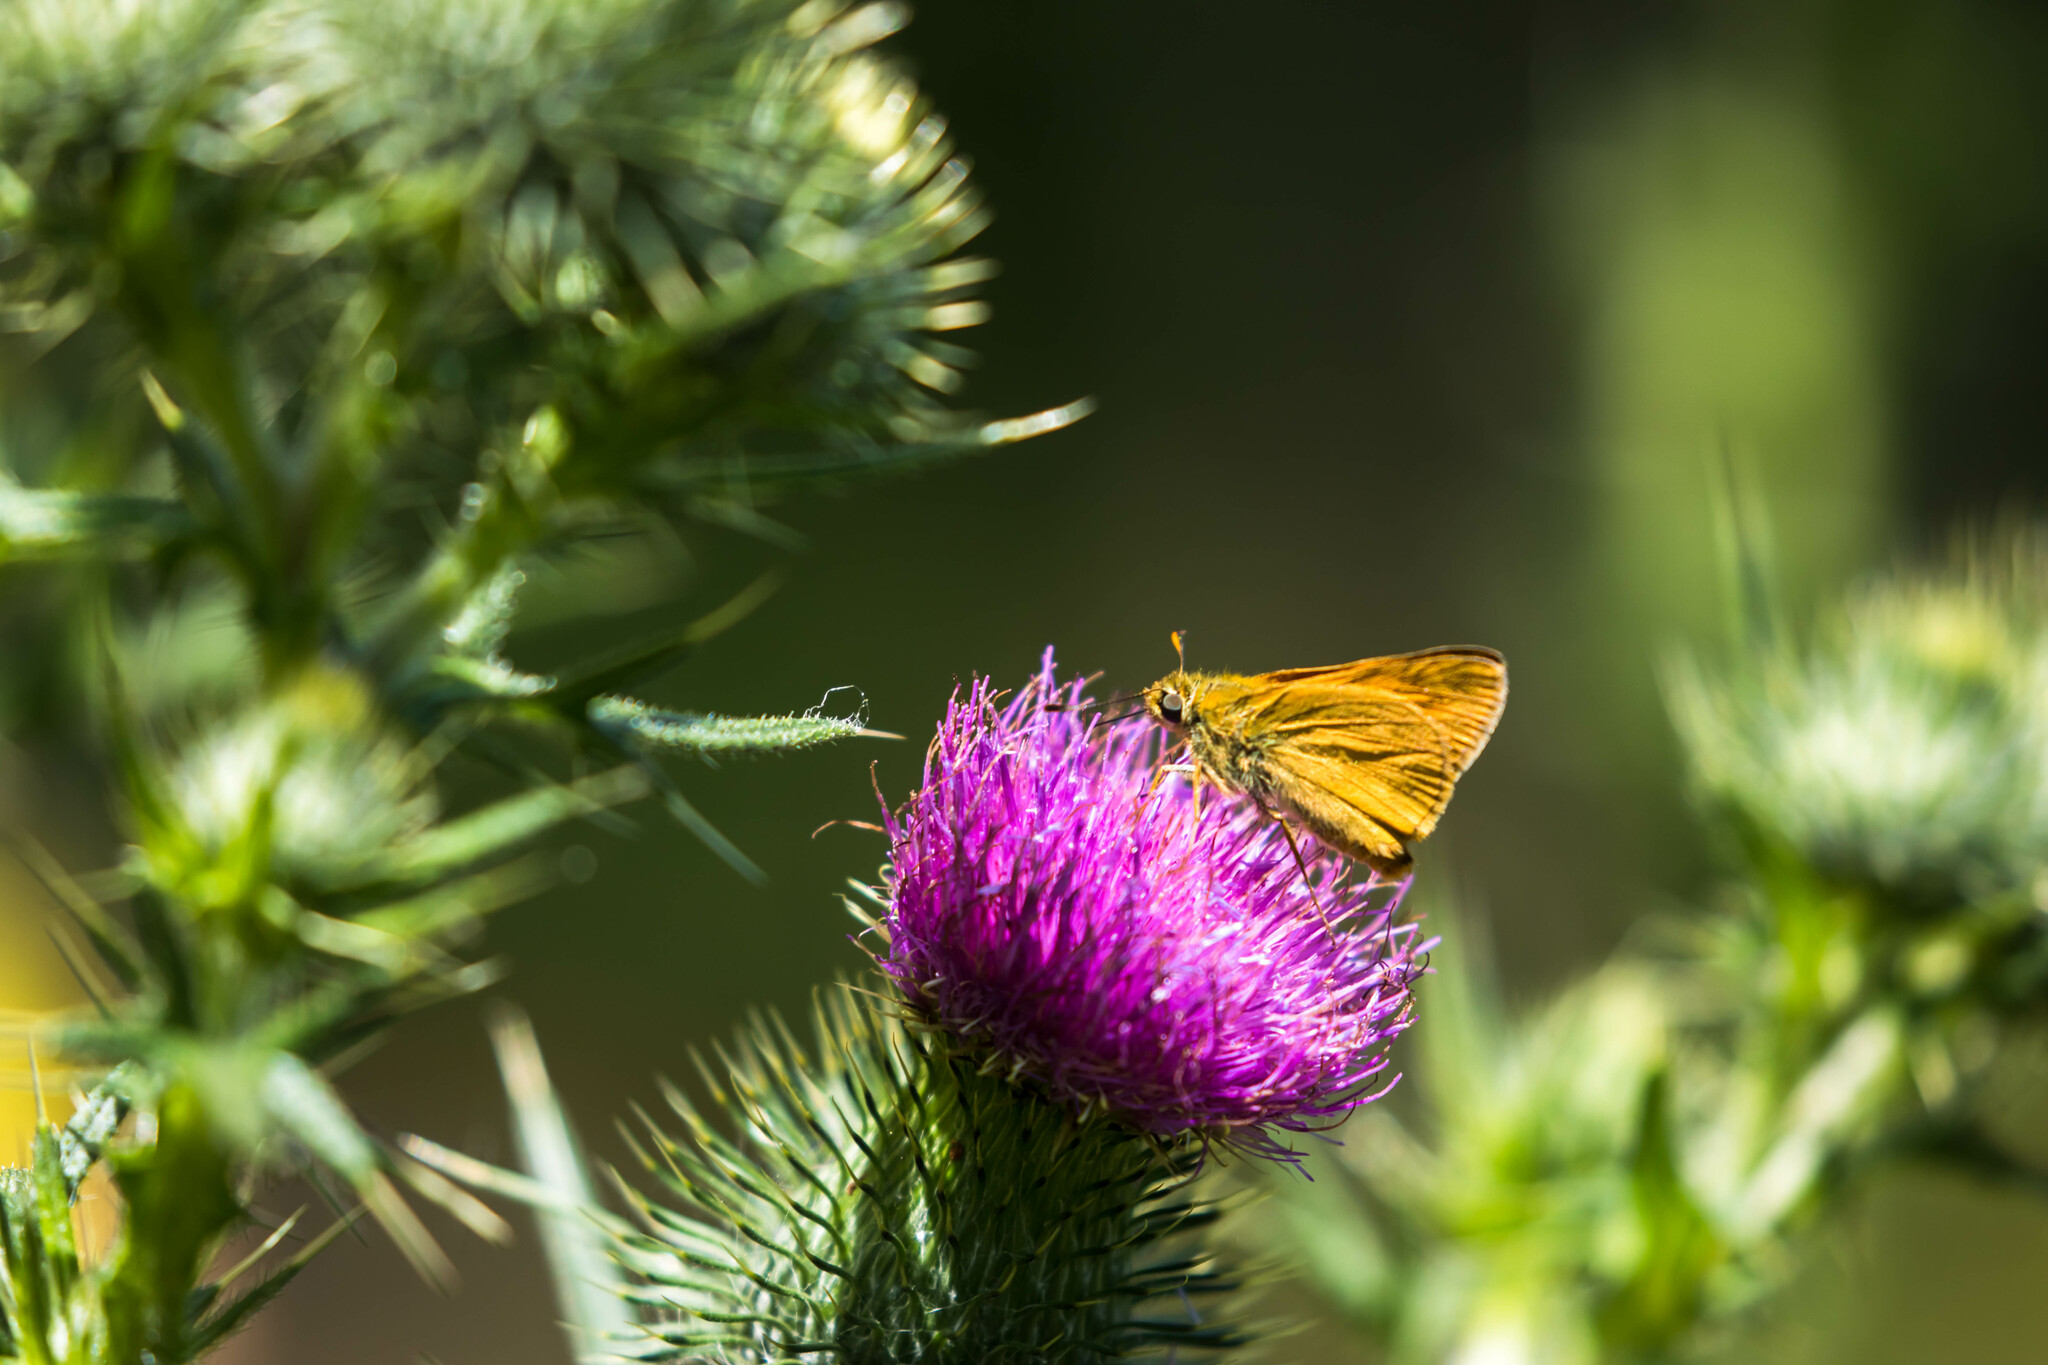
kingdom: Animalia
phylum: Arthropoda
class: Insecta
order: Lepidoptera
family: Hesperiidae
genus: Ochlodes
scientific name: Ochlodes venata
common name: Large skipper
